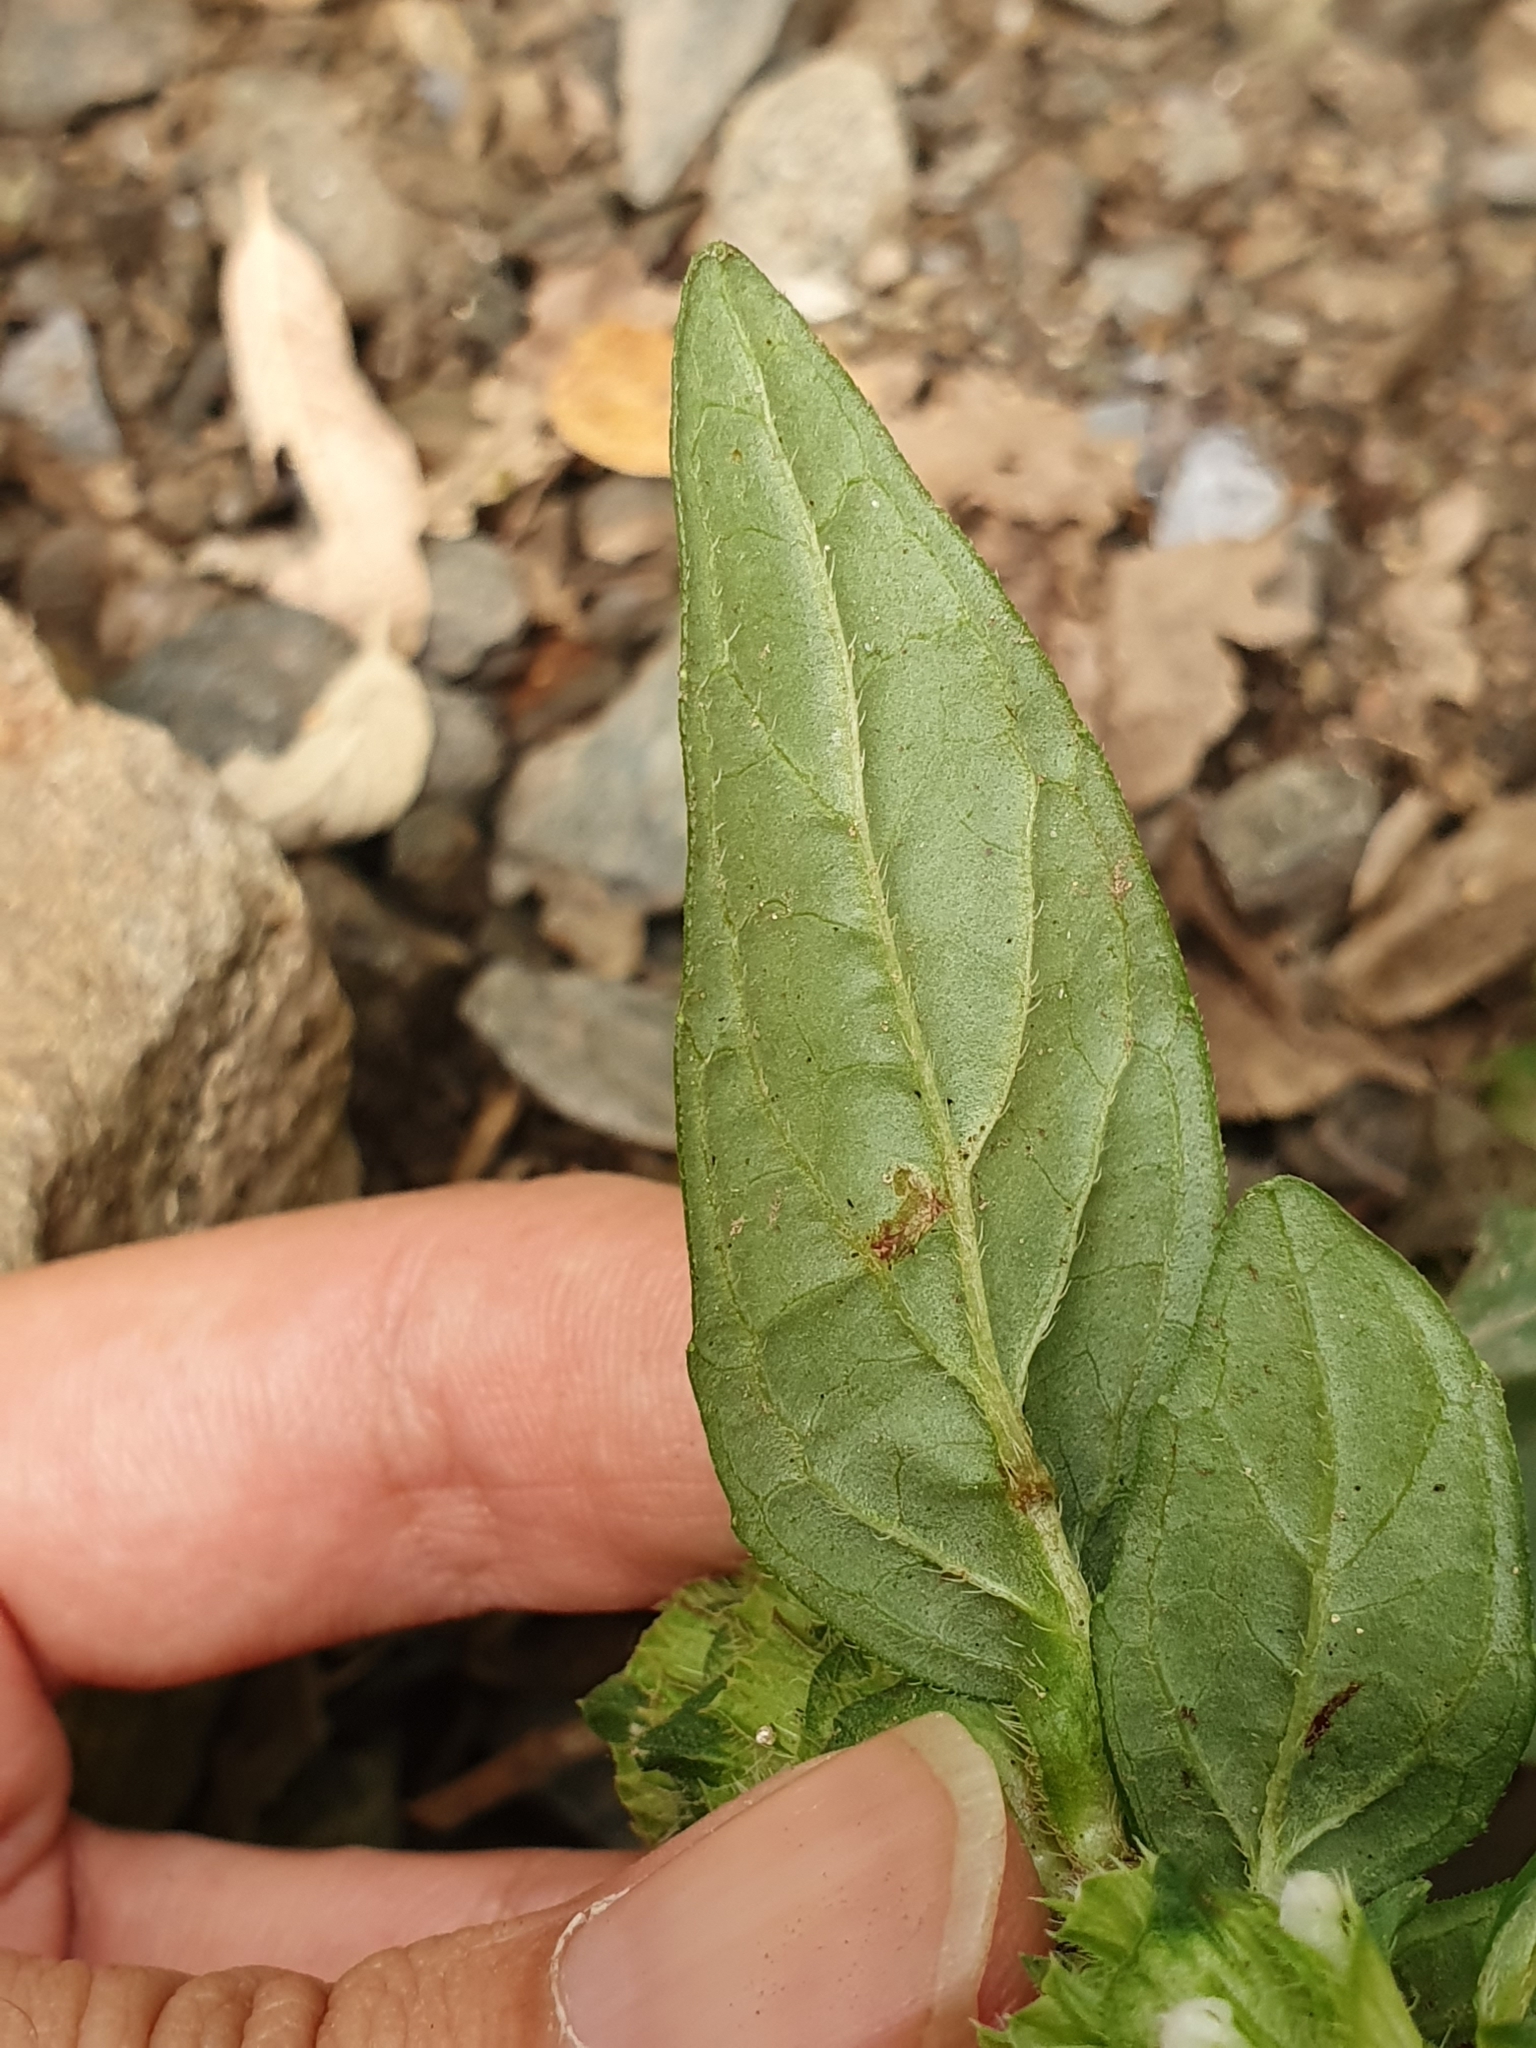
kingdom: Plantae
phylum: Tracheophyta
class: Magnoliopsida
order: Lamiales
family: Lamiaceae
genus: Prunella
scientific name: Prunella vulgaris
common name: Heal-all
